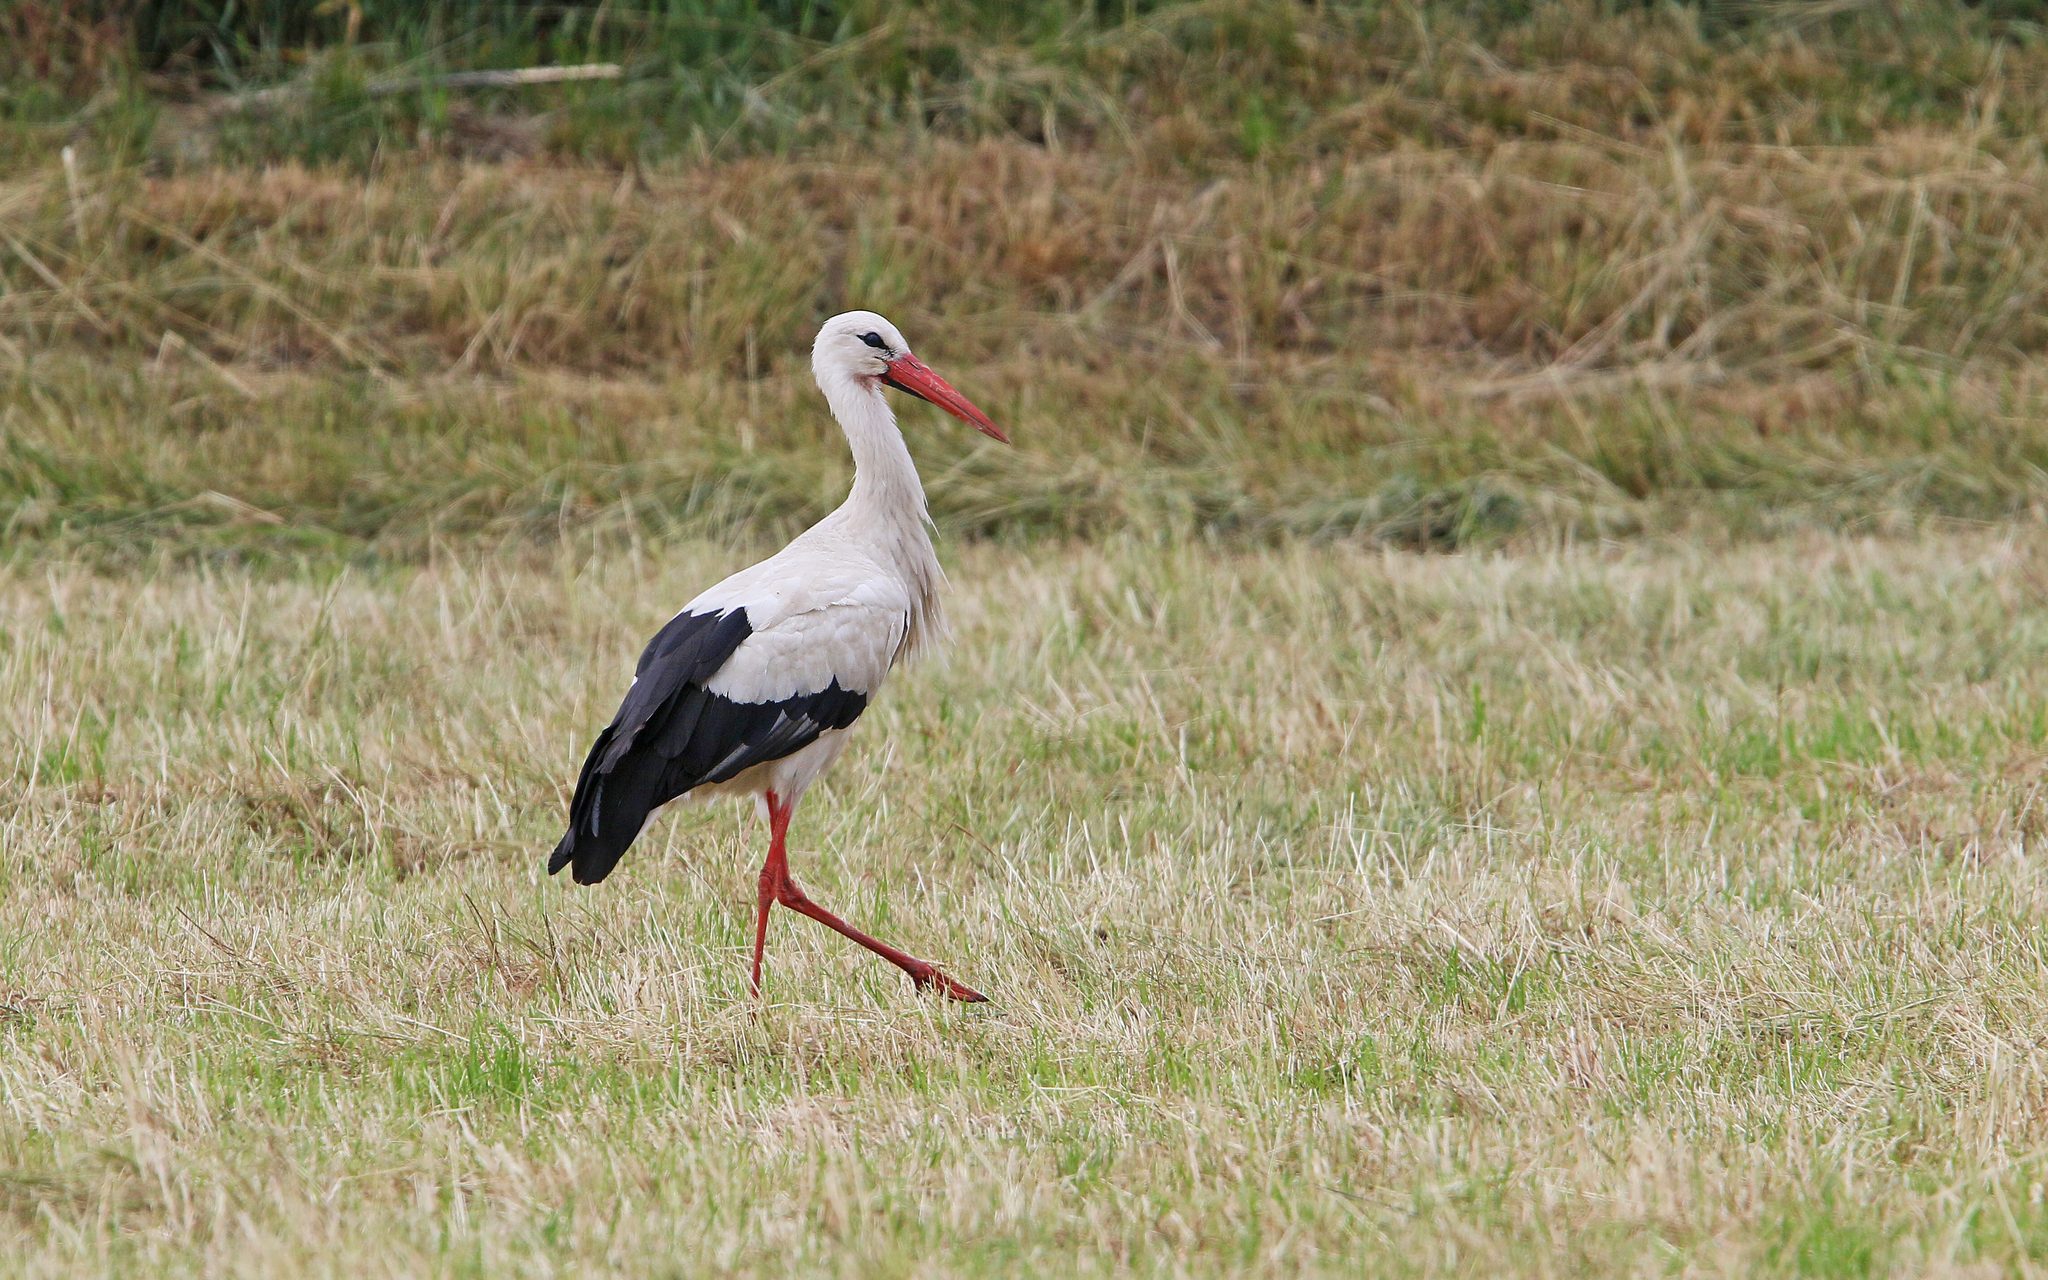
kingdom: Animalia
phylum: Chordata
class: Aves
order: Ciconiiformes
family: Ciconiidae
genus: Ciconia
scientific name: Ciconia ciconia
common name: White stork
